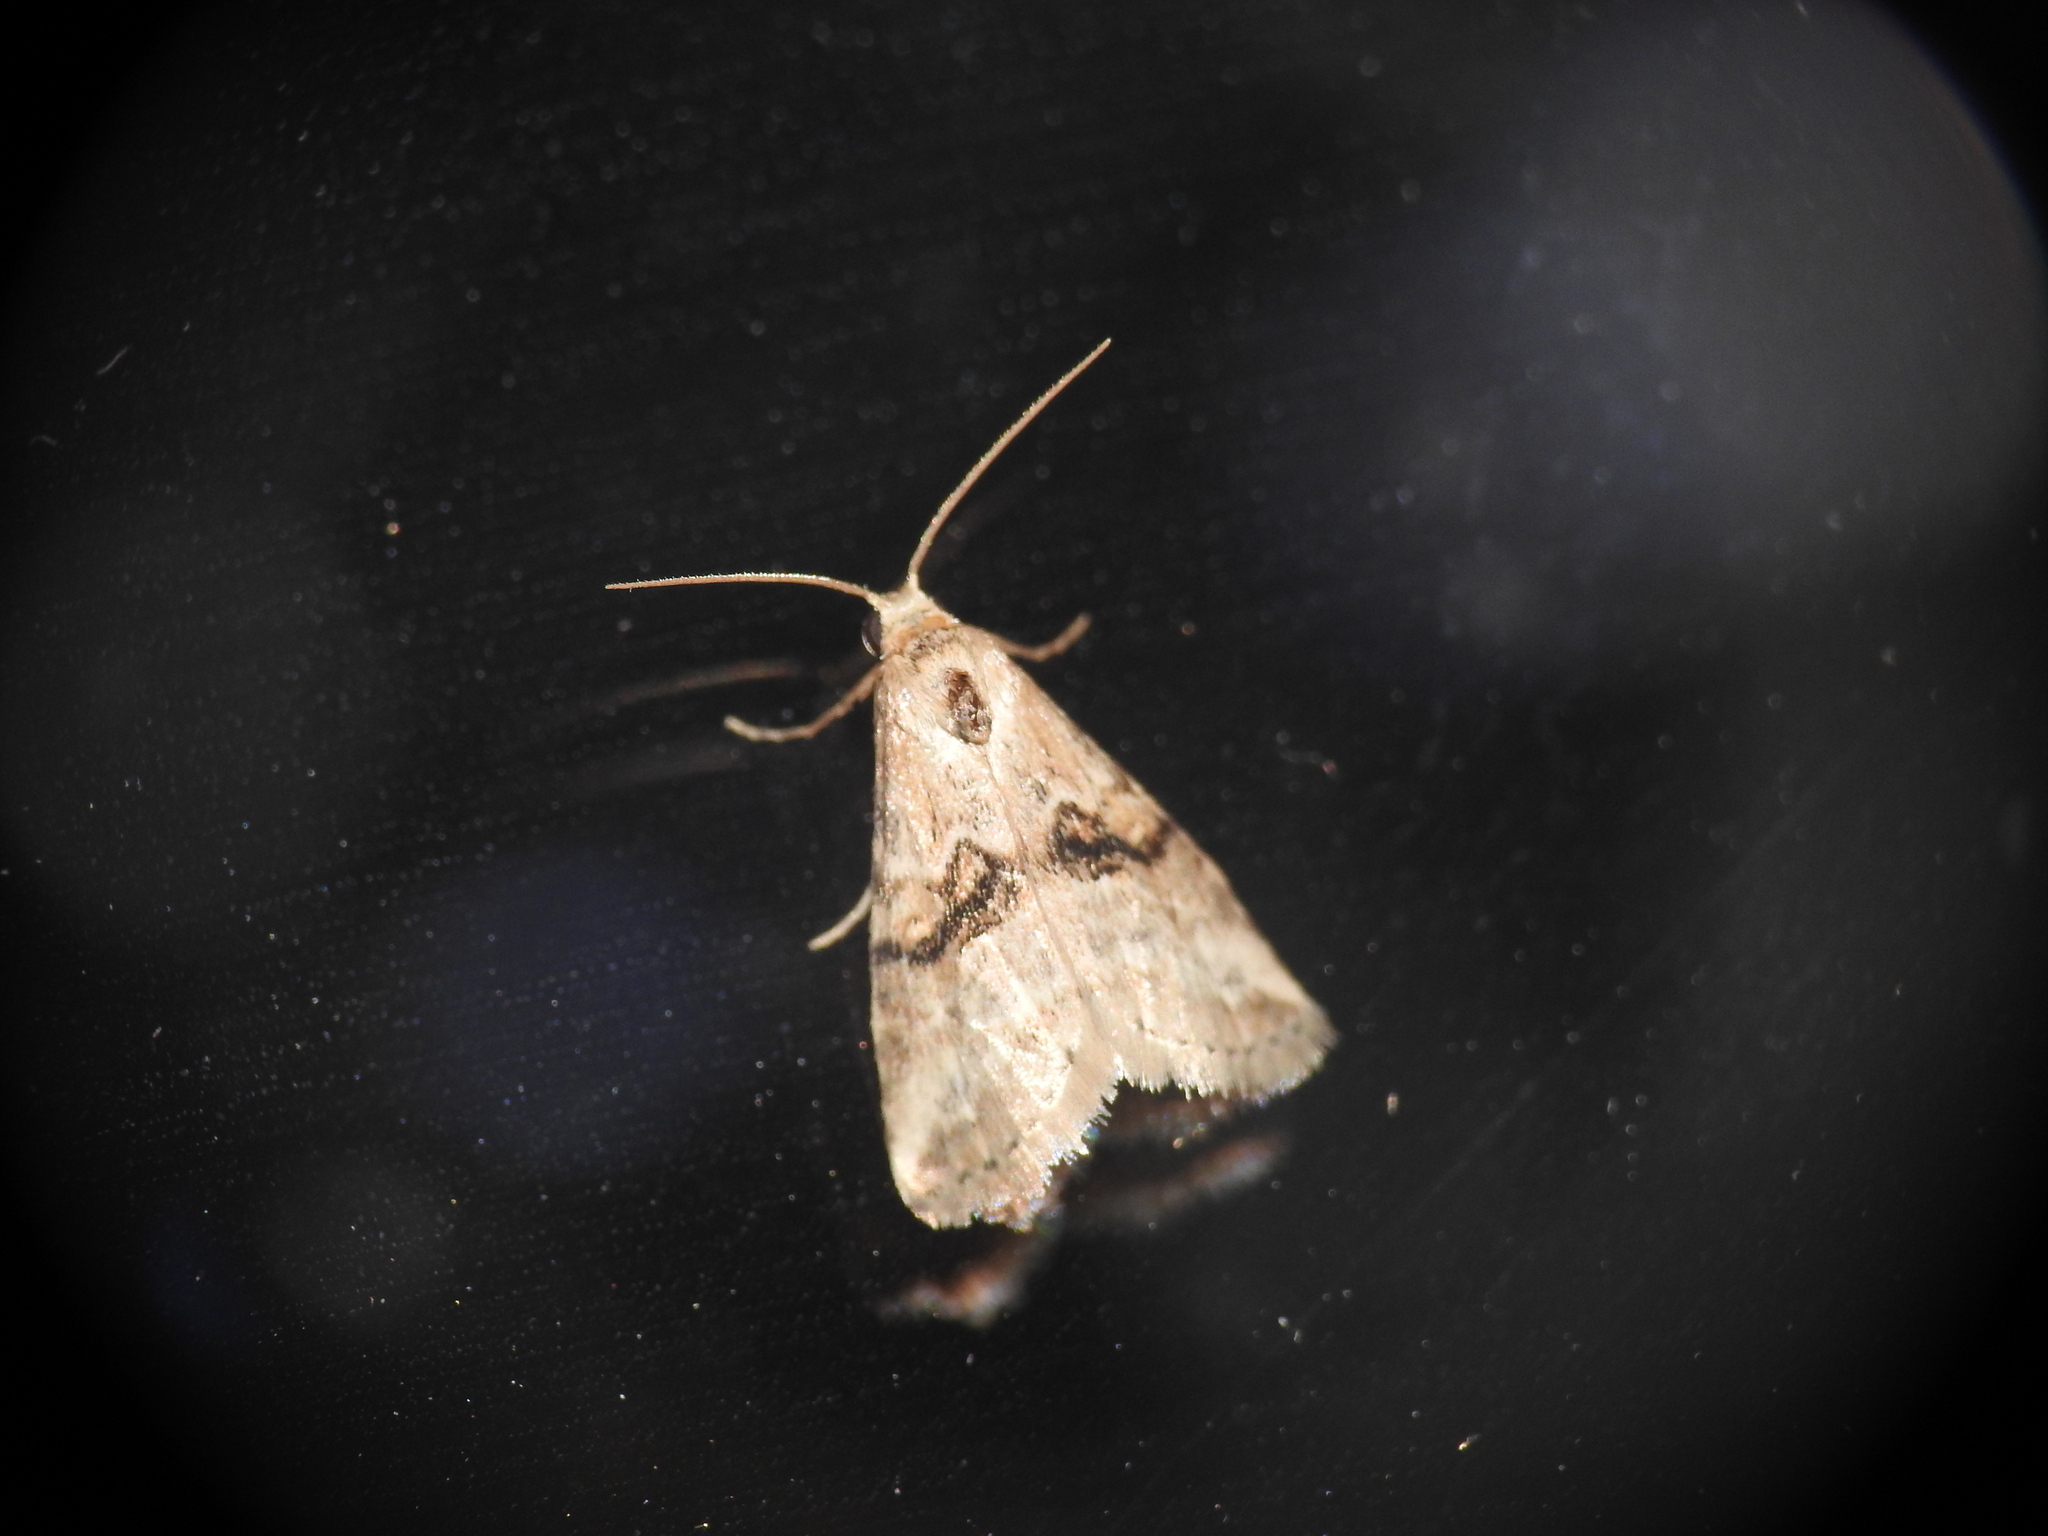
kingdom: Animalia
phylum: Arthropoda
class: Insecta
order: Lepidoptera
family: Erebidae
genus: Zebeeba
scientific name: Zebeeba falsalis
